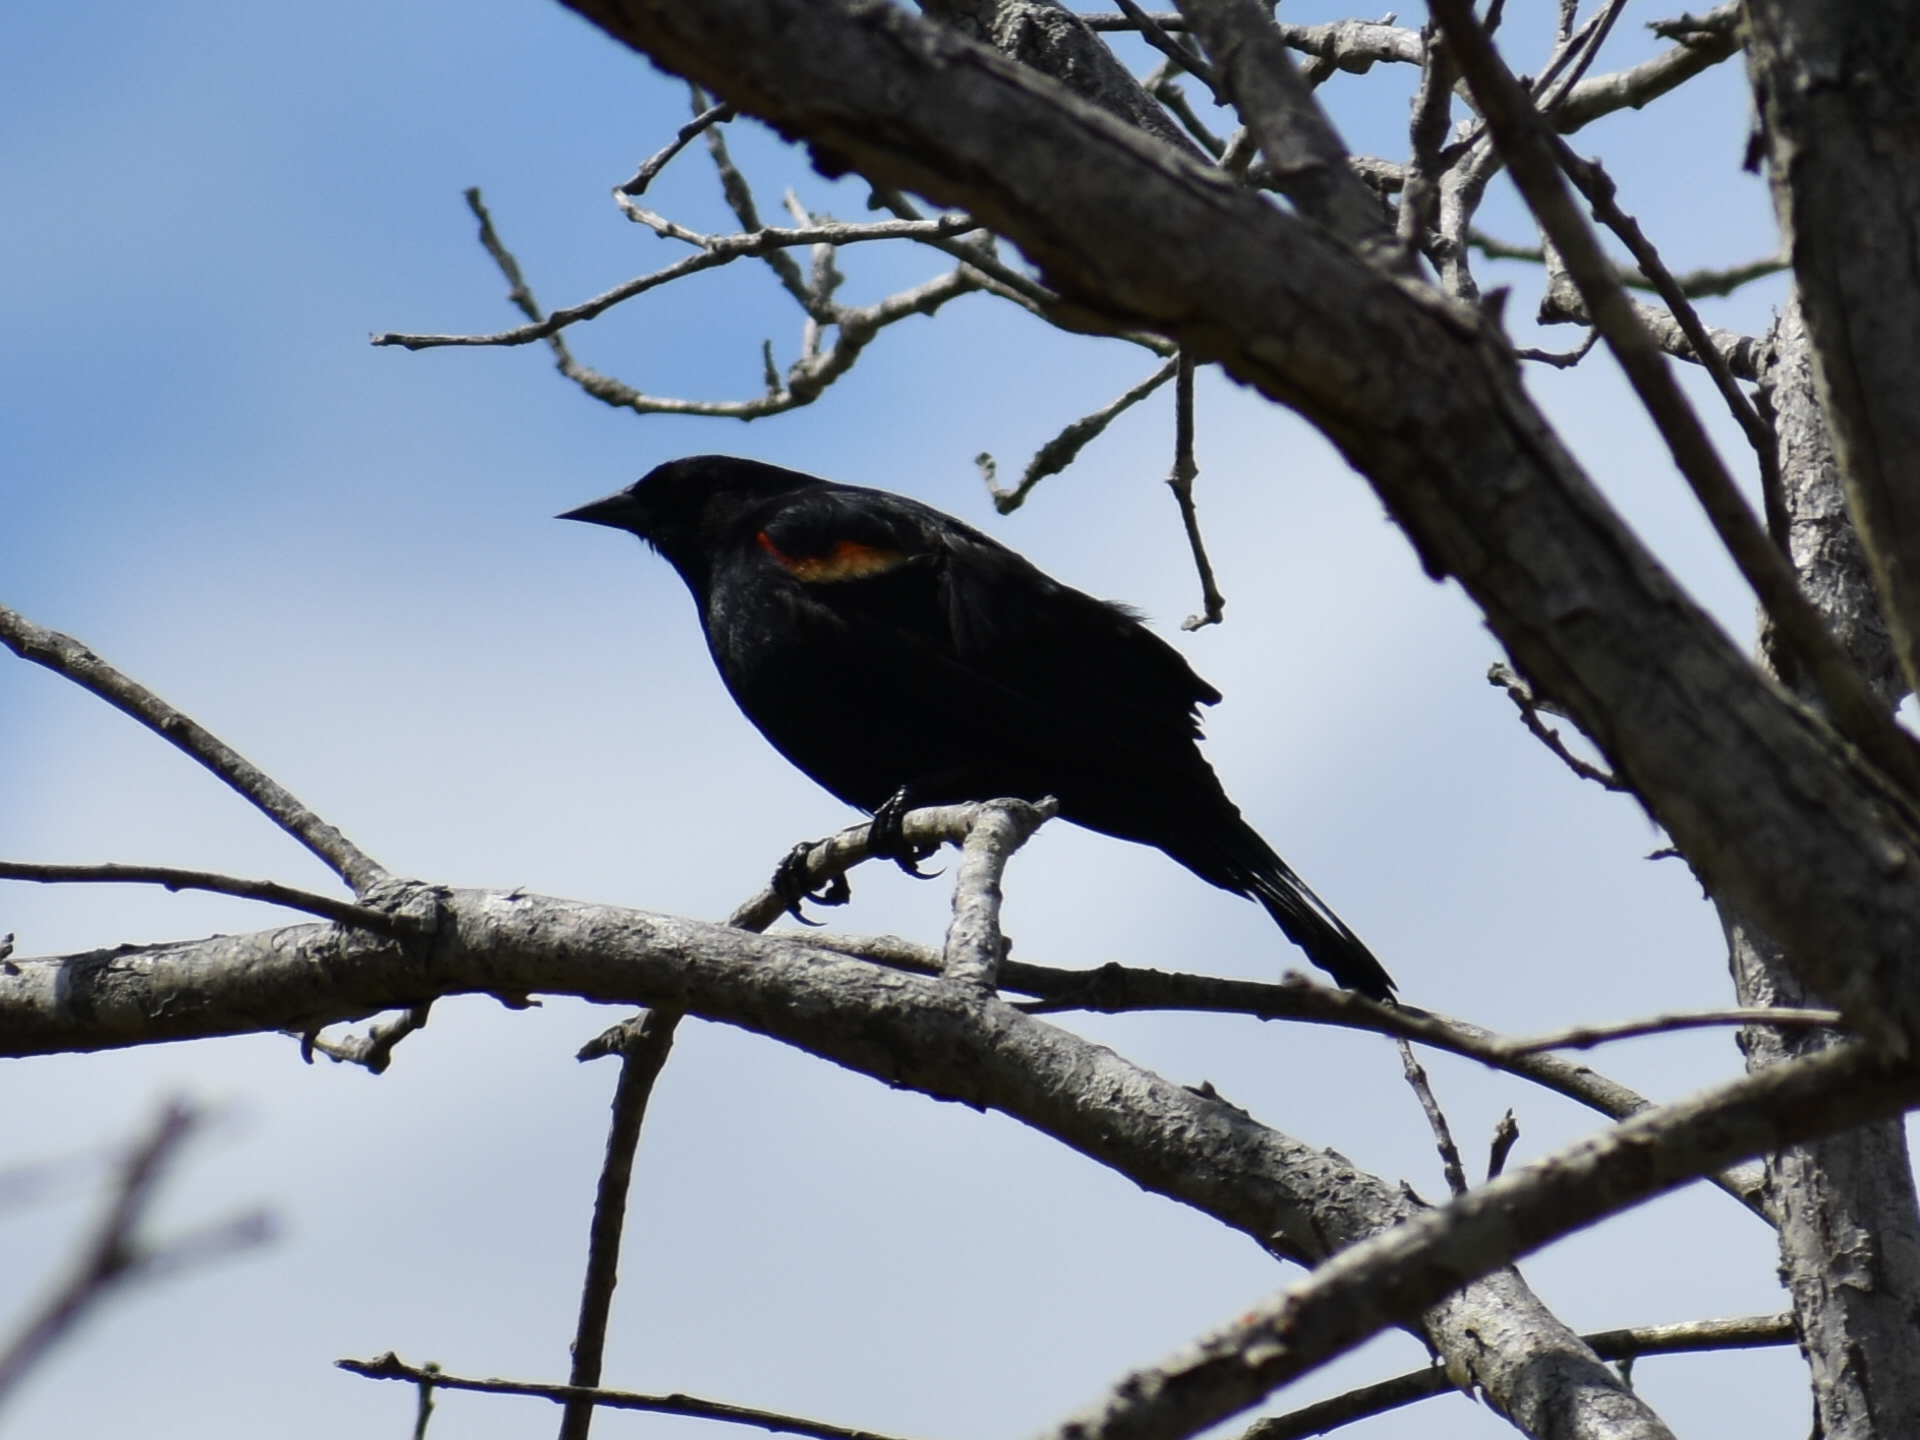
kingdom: Animalia
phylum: Chordata
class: Aves
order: Passeriformes
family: Icteridae
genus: Agelaius
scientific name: Agelaius phoeniceus
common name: Red-winged blackbird
